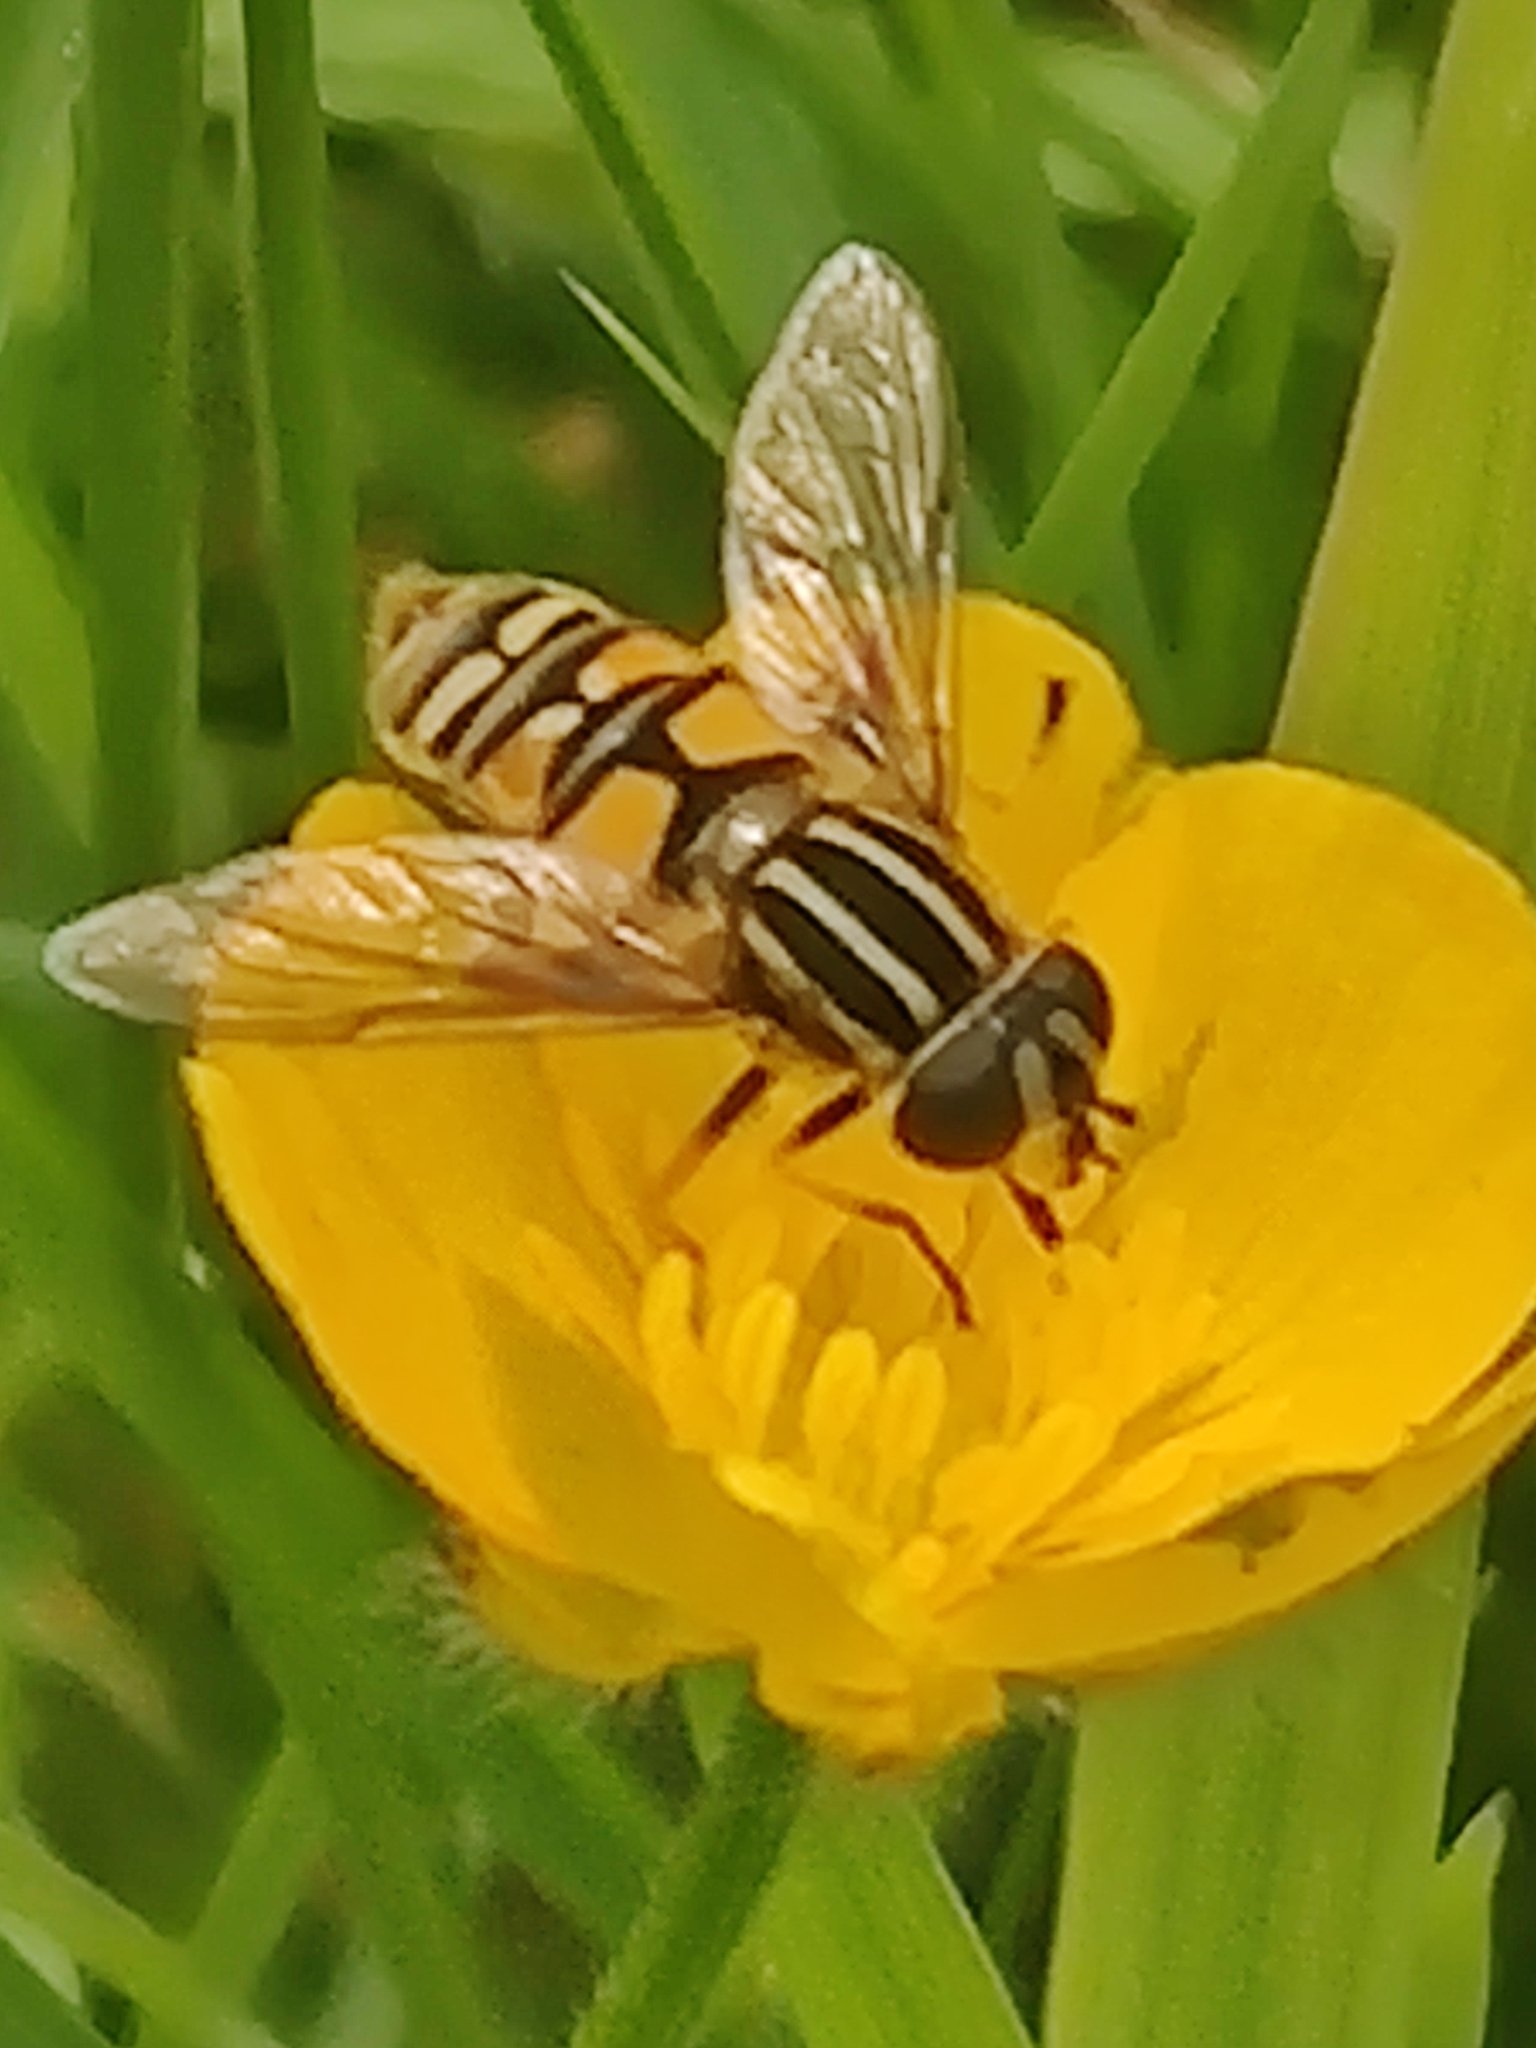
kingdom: Animalia
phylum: Arthropoda
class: Insecta
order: Diptera
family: Syrphidae
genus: Helophilus
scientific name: Helophilus pendulus
